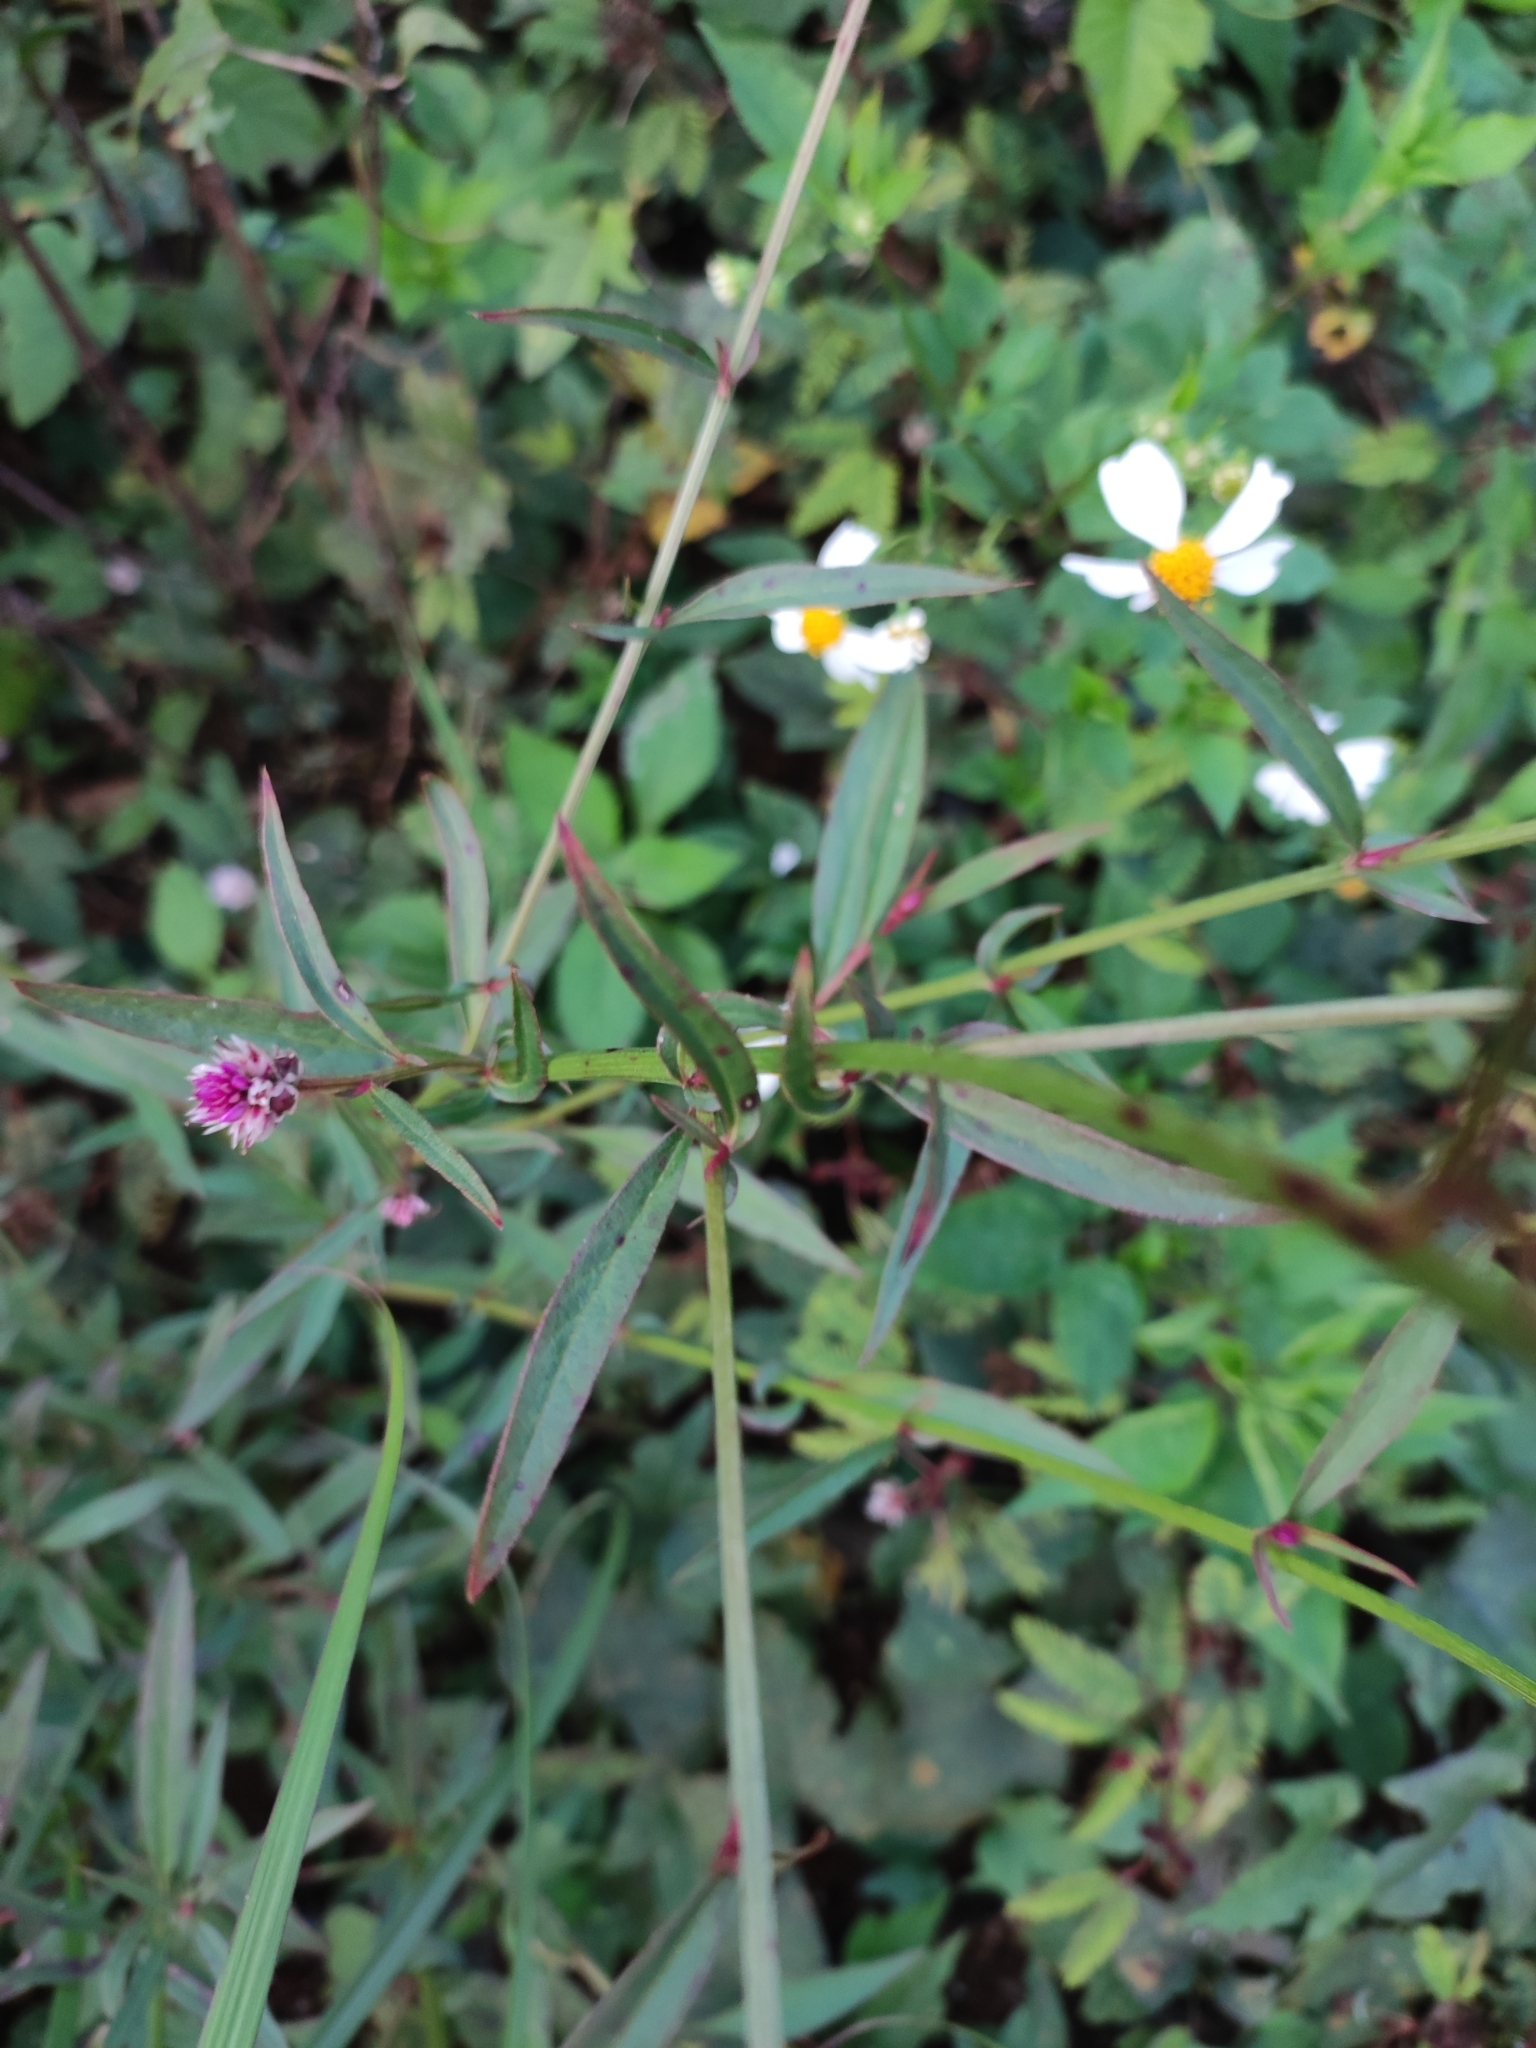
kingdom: Plantae
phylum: Tracheophyta
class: Magnoliopsida
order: Caryophyllales
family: Amaranthaceae
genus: Celosia
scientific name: Celosia argentea
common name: Feather cockscomb
